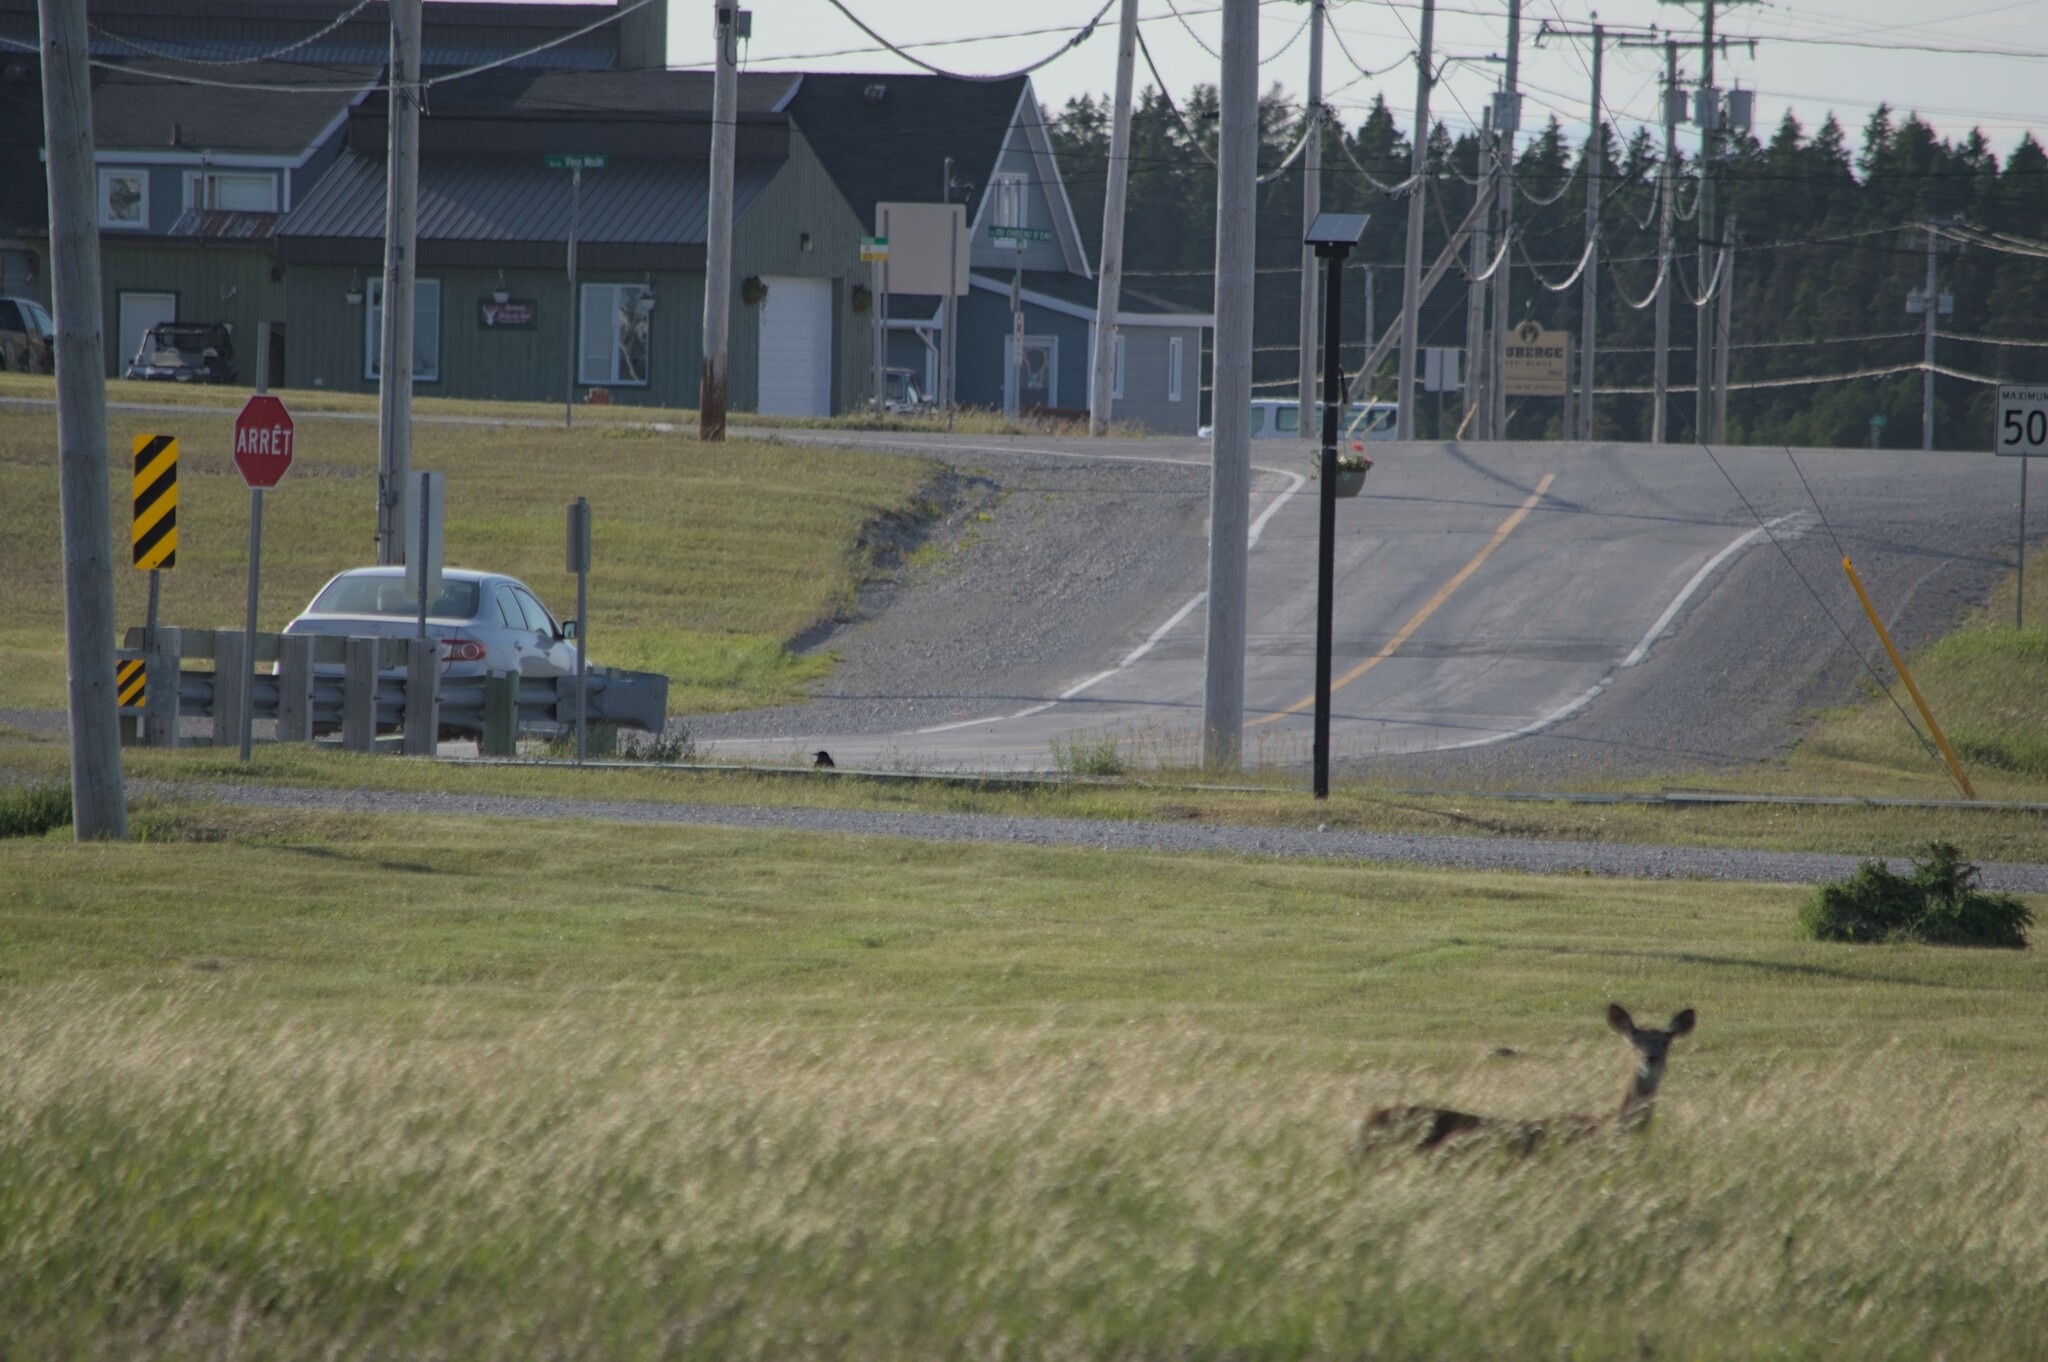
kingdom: Animalia
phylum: Chordata
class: Mammalia
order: Artiodactyla
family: Cervidae
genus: Odocoileus
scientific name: Odocoileus virginianus
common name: White-tailed deer
